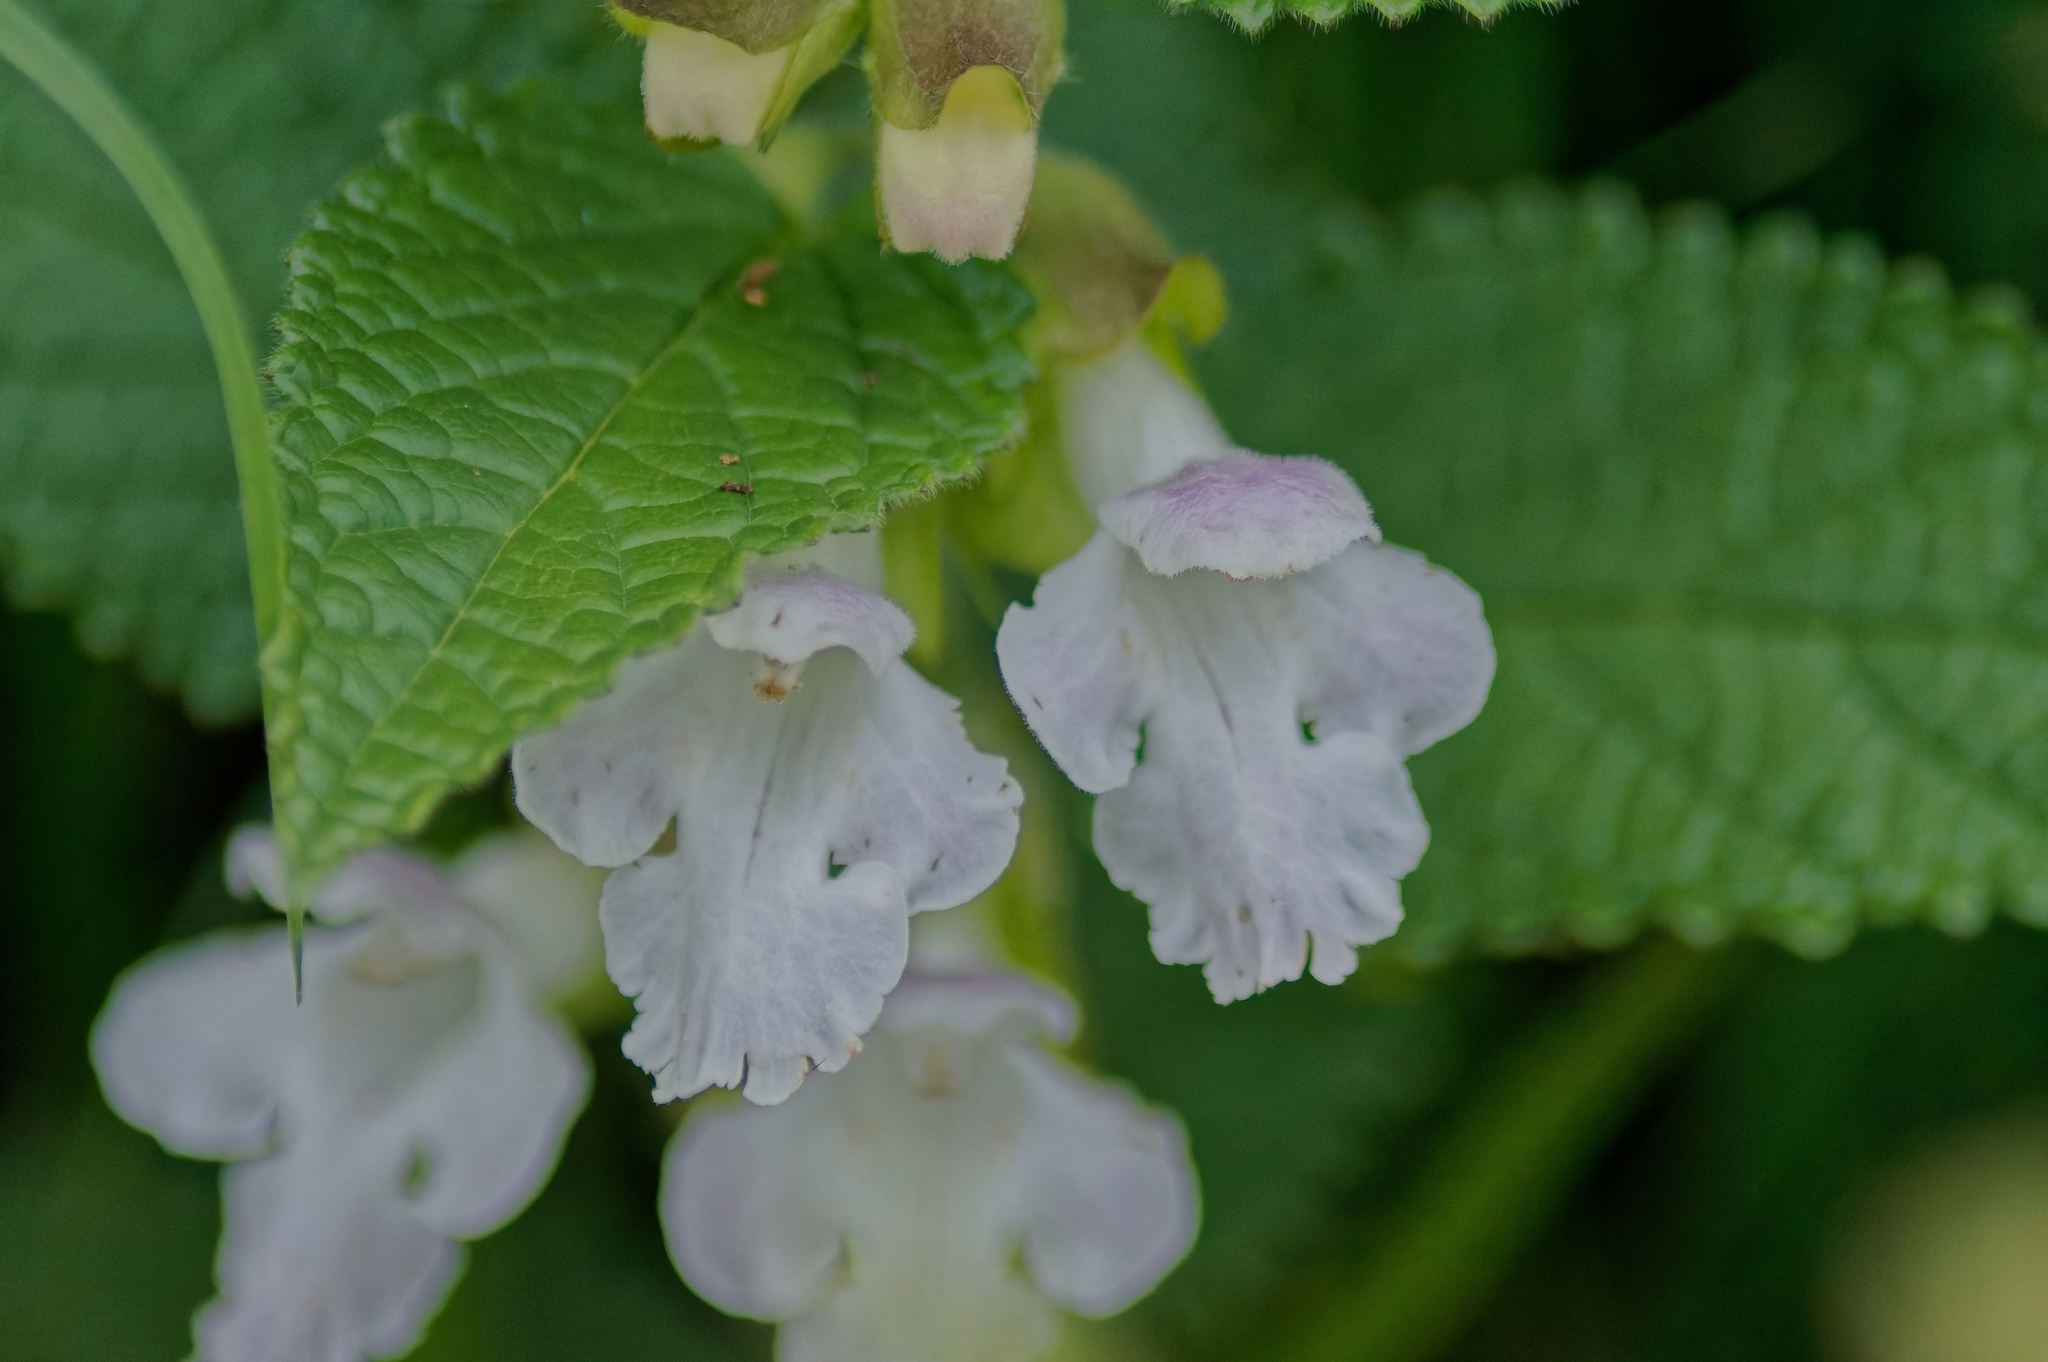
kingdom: Plantae
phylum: Tracheophyta
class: Magnoliopsida
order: Lamiales
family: Lamiaceae
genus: Melittis
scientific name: Melittis melissophyllum
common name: Bastard balm
